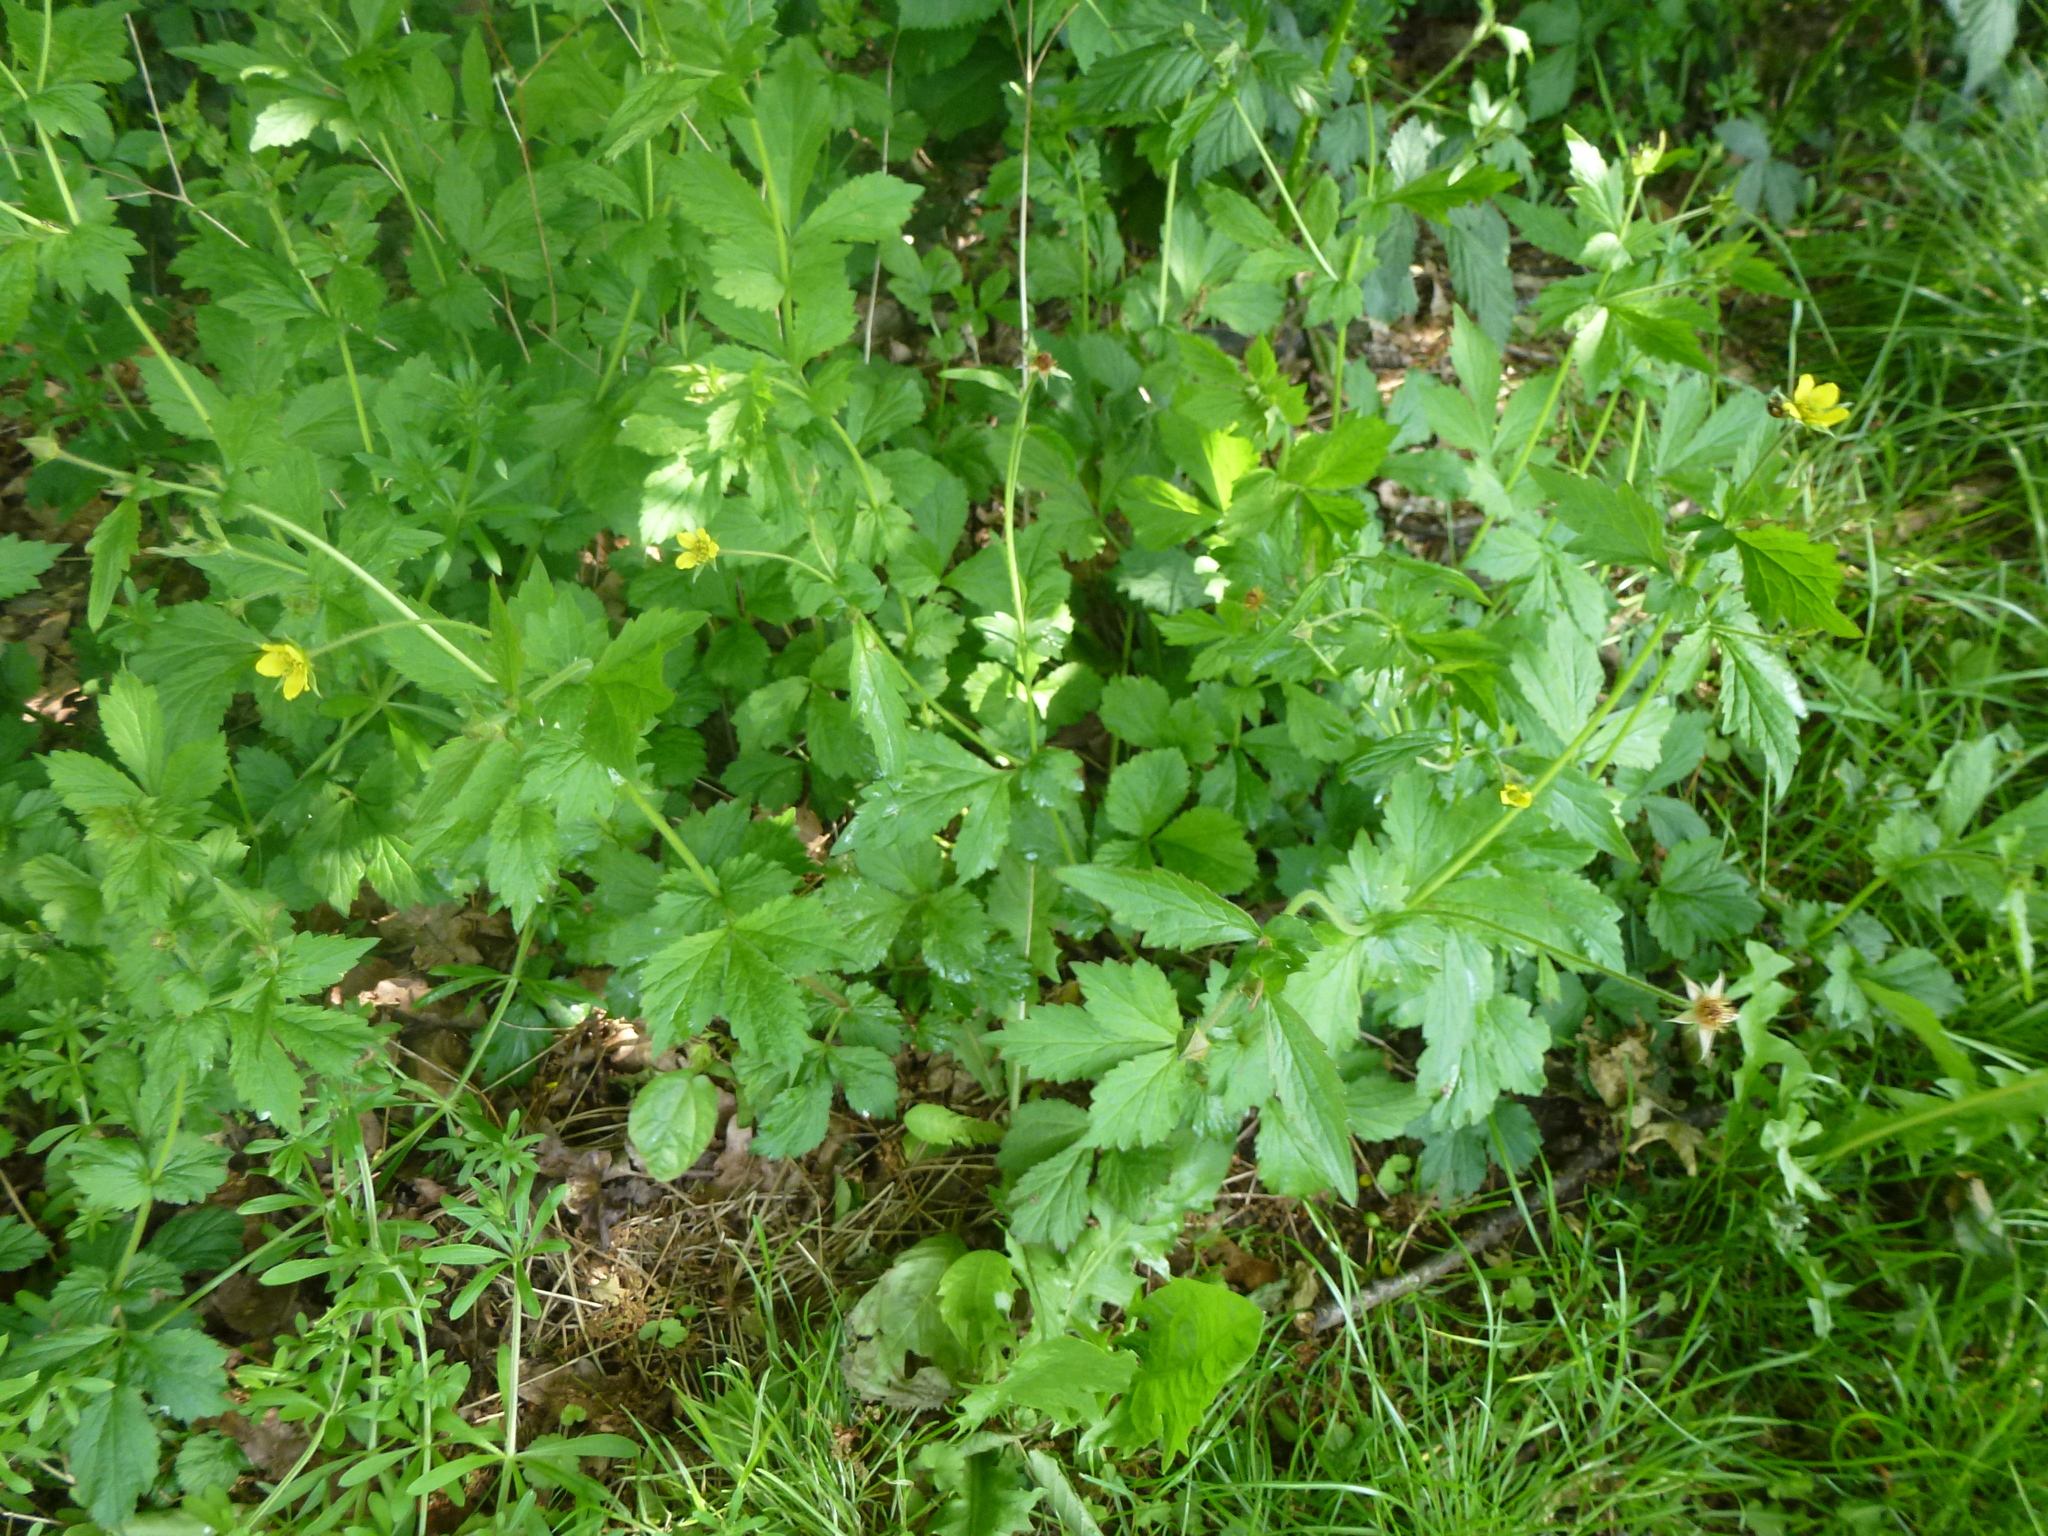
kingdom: Plantae
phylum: Tracheophyta
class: Magnoliopsida
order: Rosales
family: Rosaceae
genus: Geum
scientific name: Geum urbanum
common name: Wood avens
